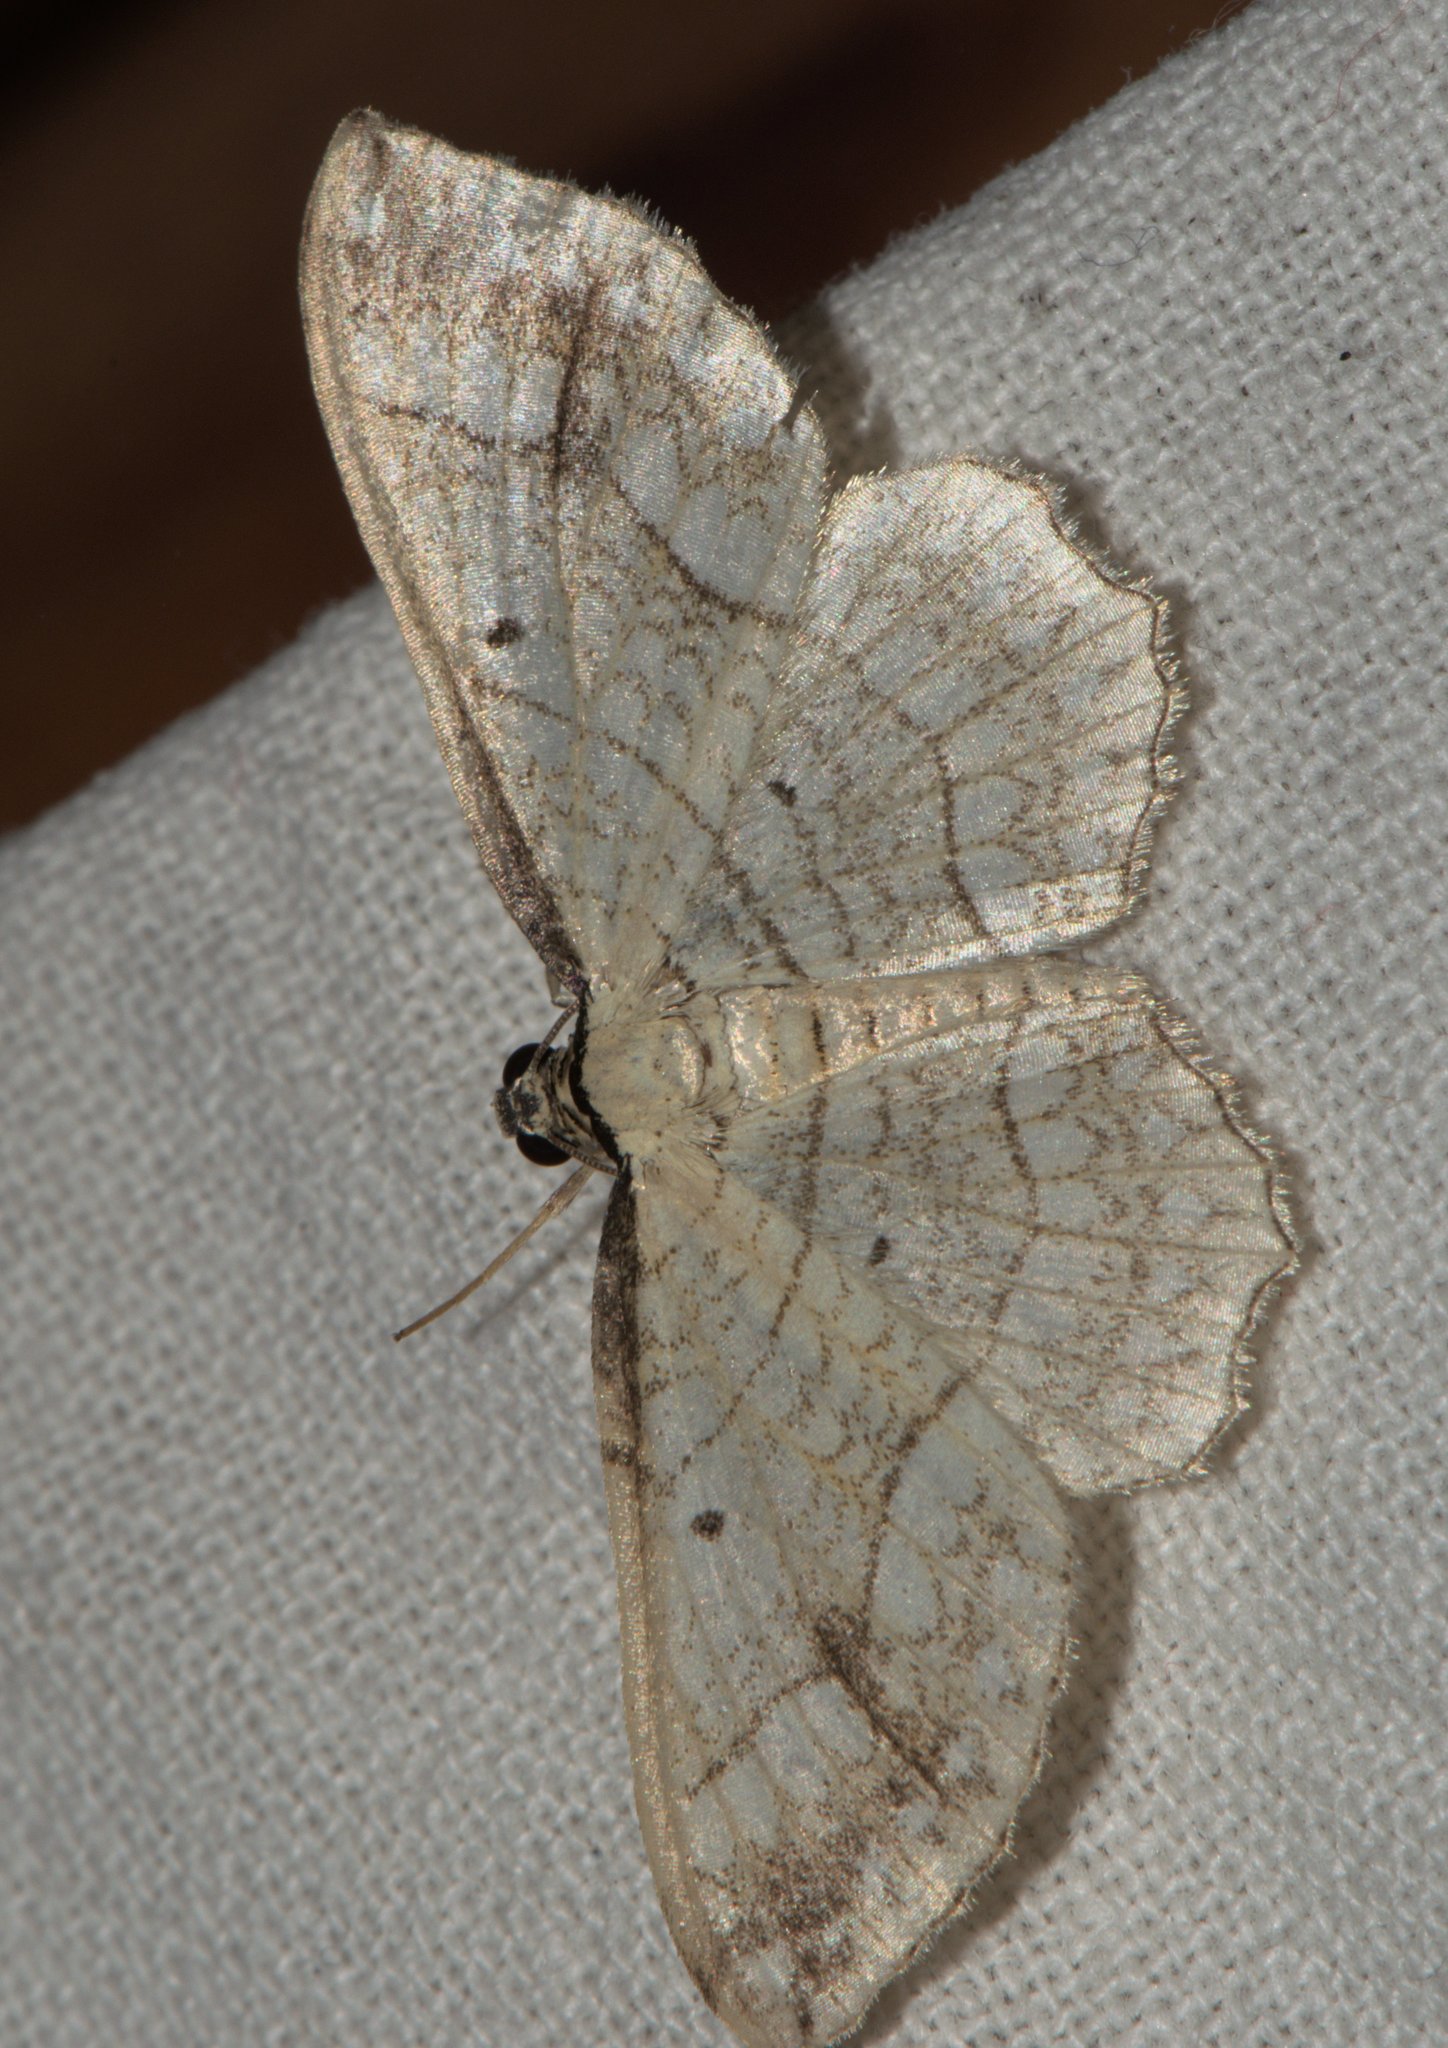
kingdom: Animalia
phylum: Arthropoda
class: Insecta
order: Lepidoptera
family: Geometridae
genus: Laciniodes
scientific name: Laciniodes plurilinearia
